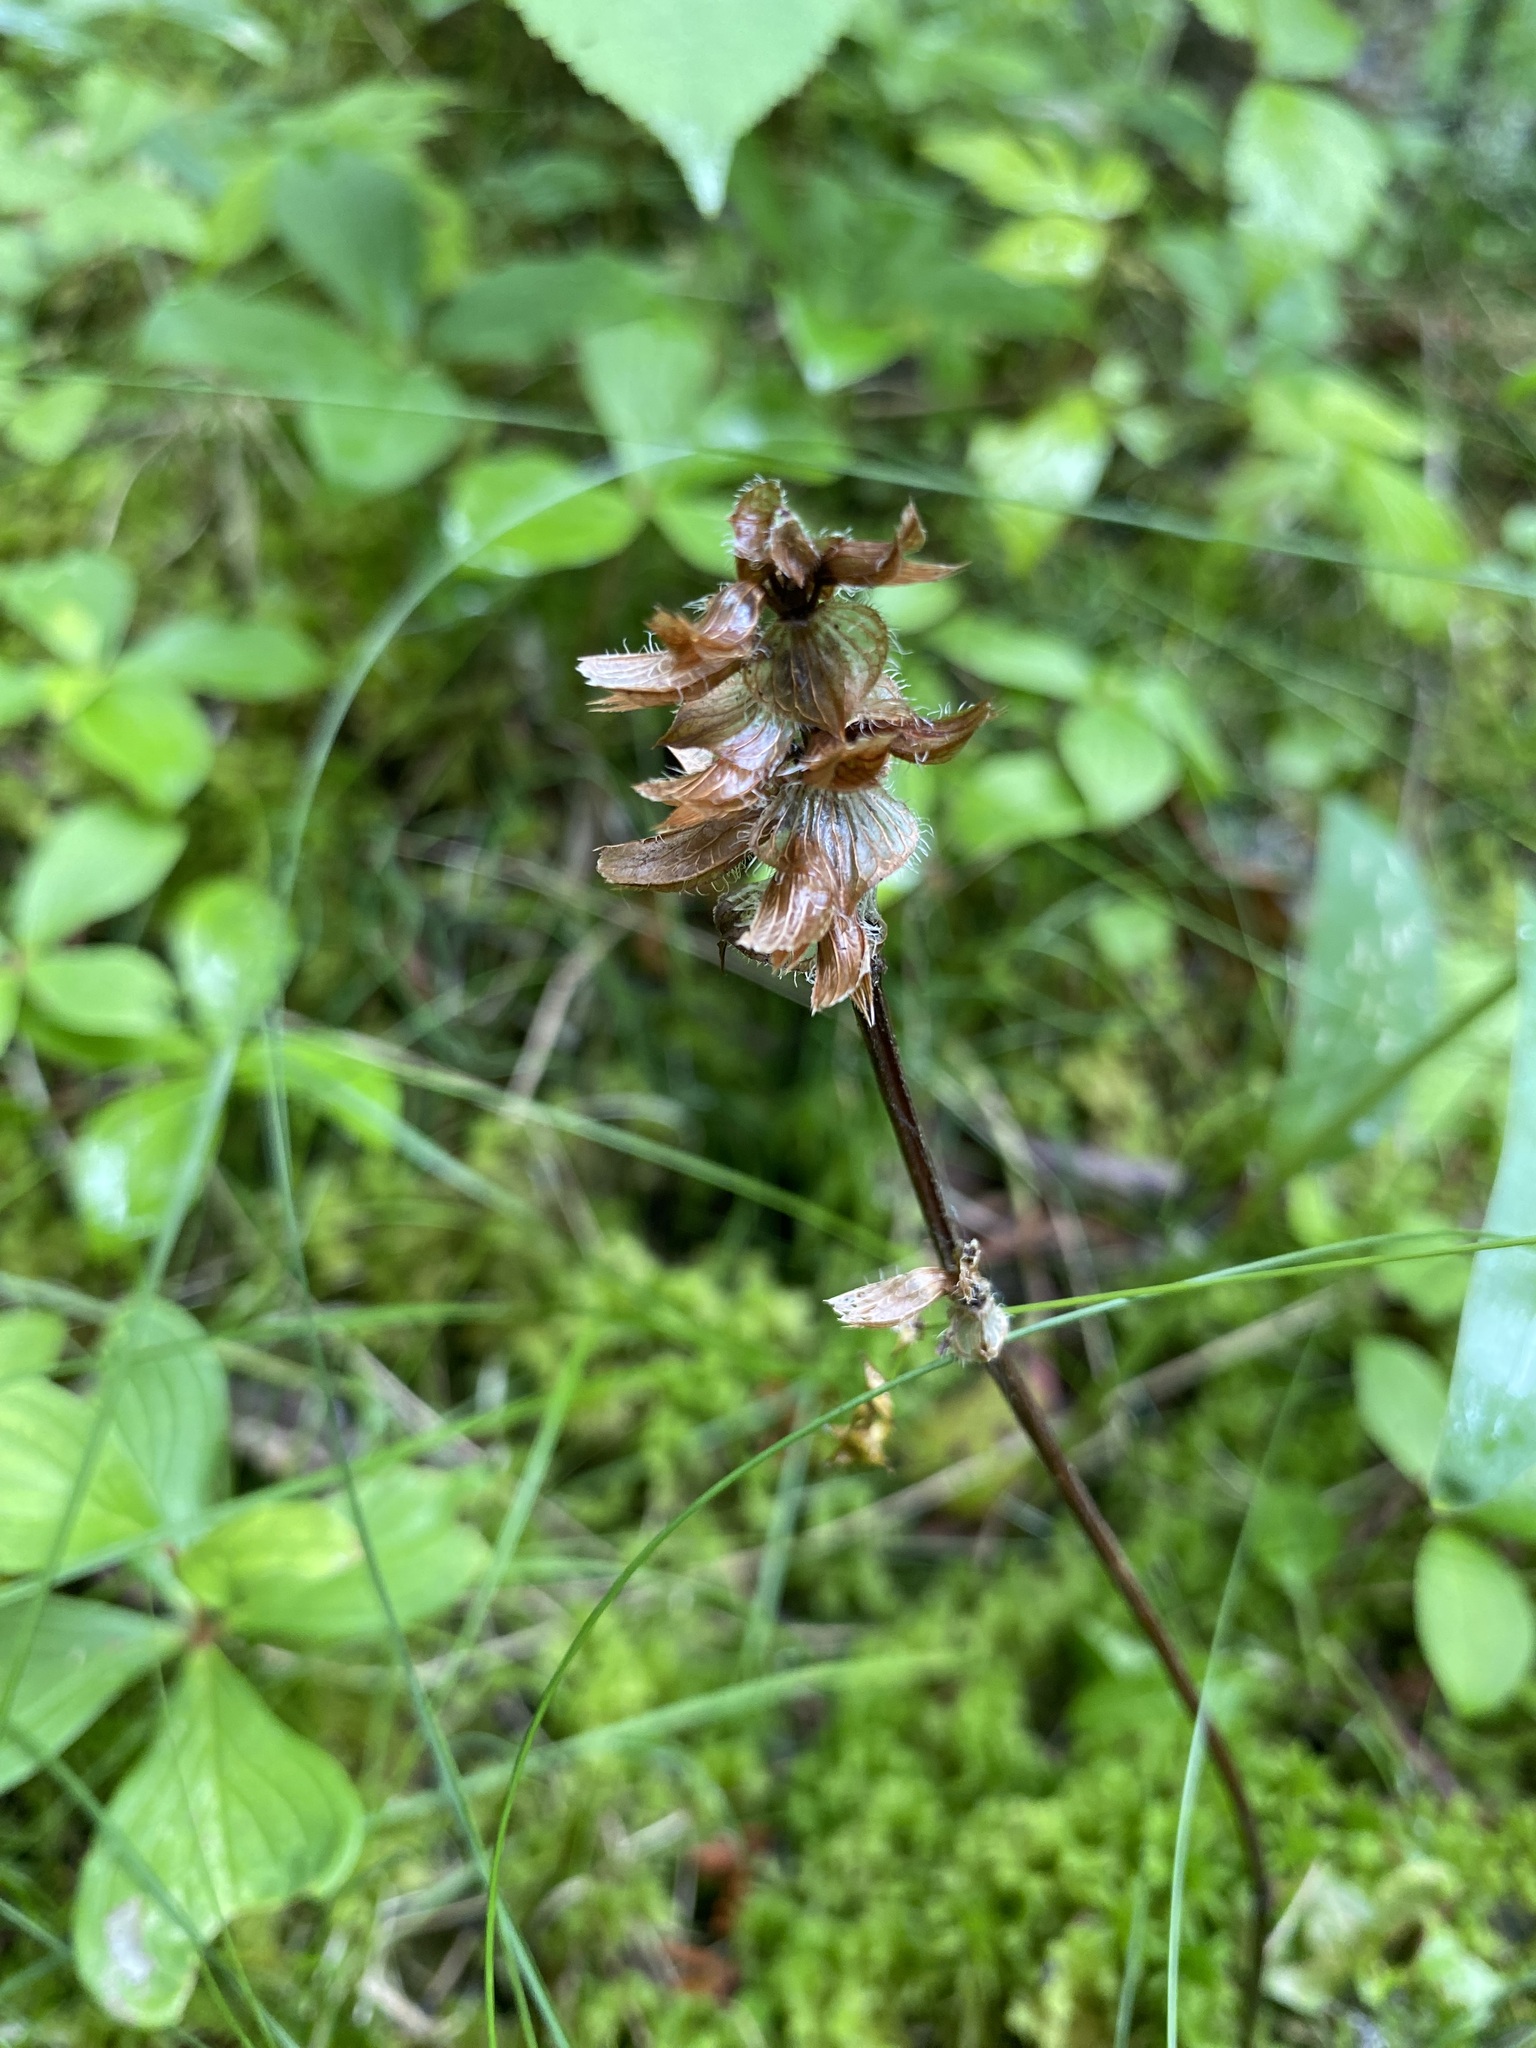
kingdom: Plantae
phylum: Tracheophyta
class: Magnoliopsida
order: Lamiales
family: Lamiaceae
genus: Prunella
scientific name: Prunella vulgaris
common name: Heal-all
